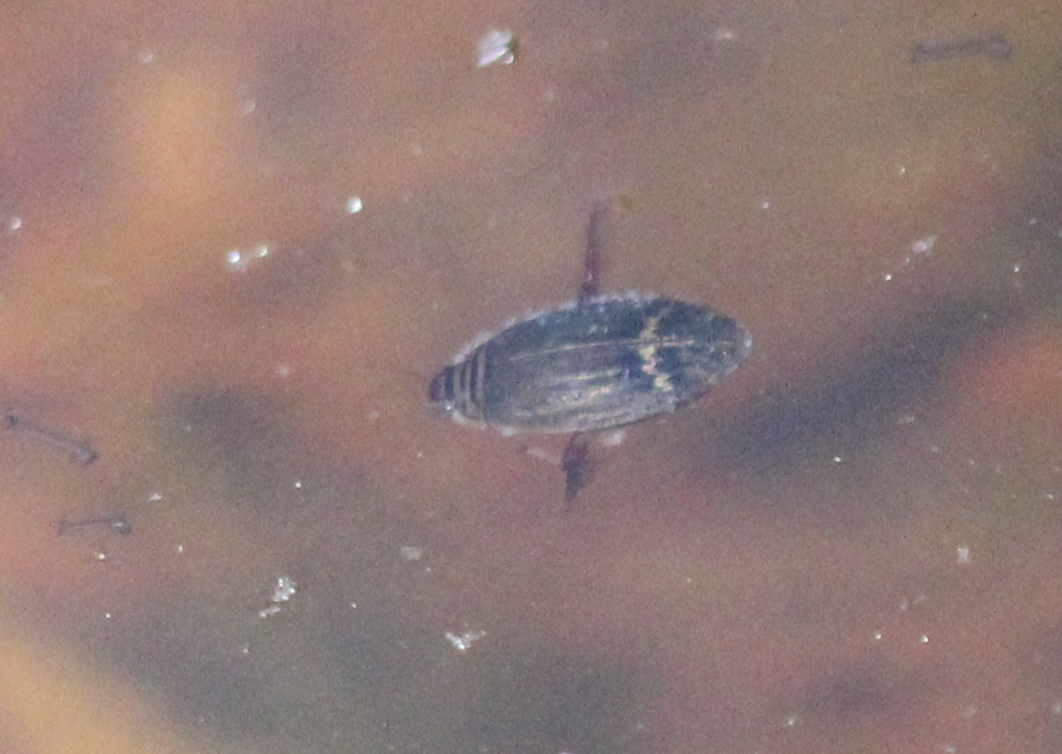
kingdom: Animalia
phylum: Arthropoda
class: Insecta
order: Coleoptera
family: Dytiscidae
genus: Acilius
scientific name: Acilius
